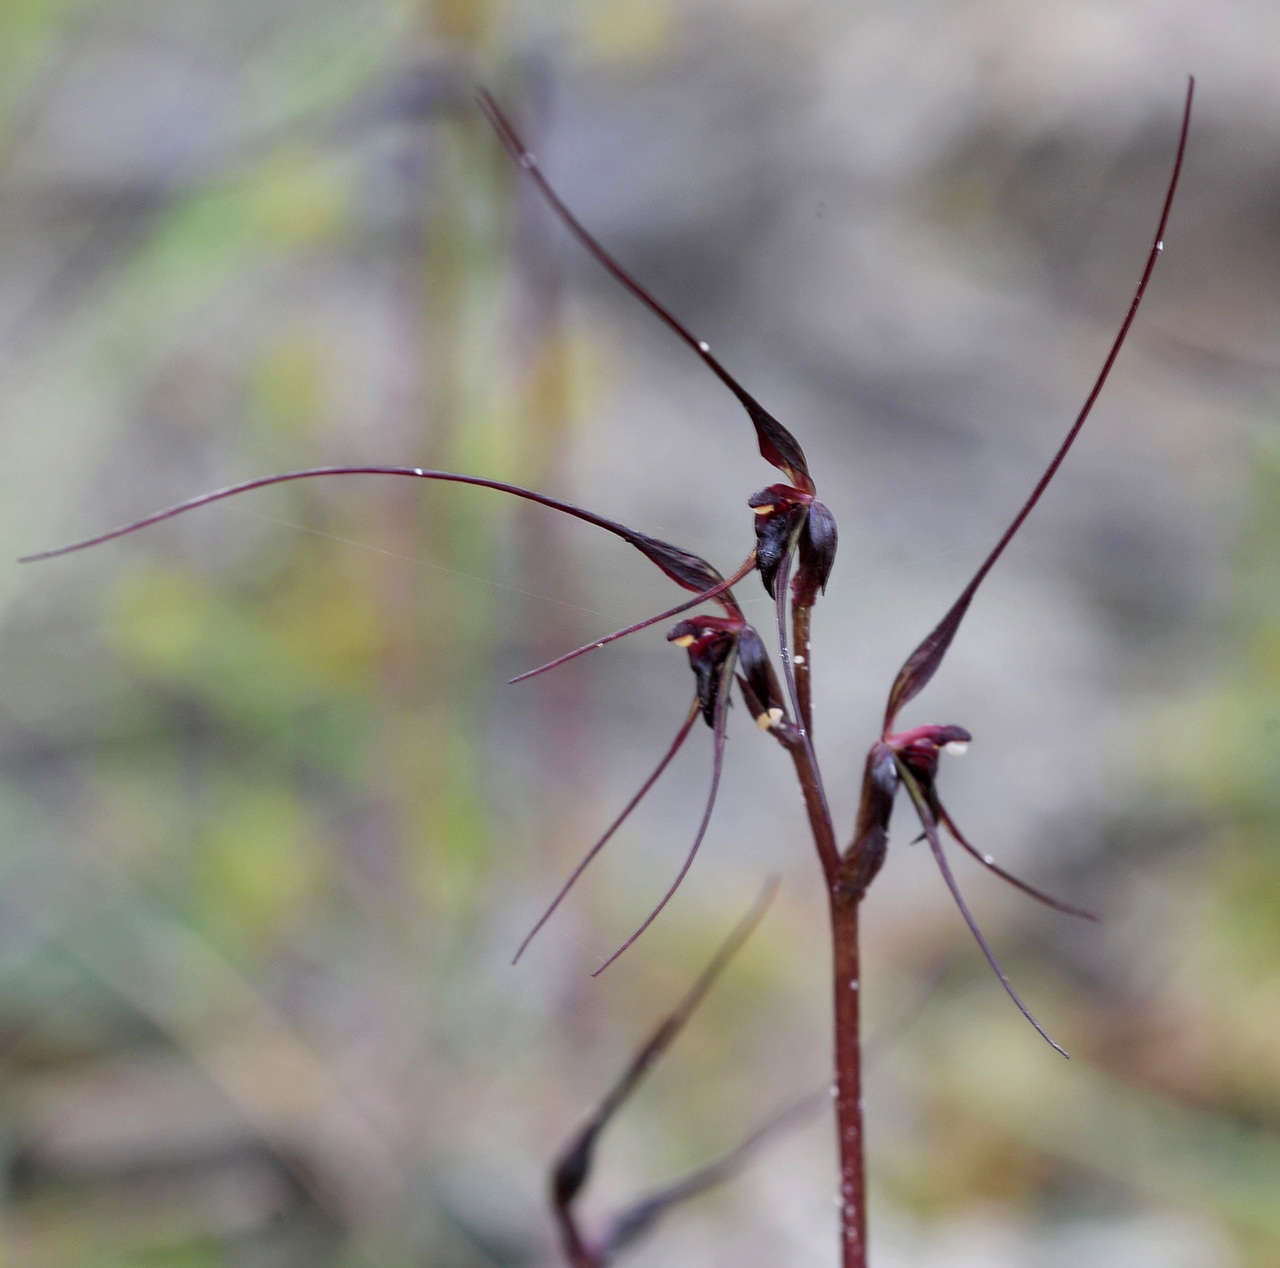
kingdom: Plantae
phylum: Tracheophyta
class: Liliopsida
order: Asparagales
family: Orchidaceae
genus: Acianthus
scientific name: Acianthus caudatus
